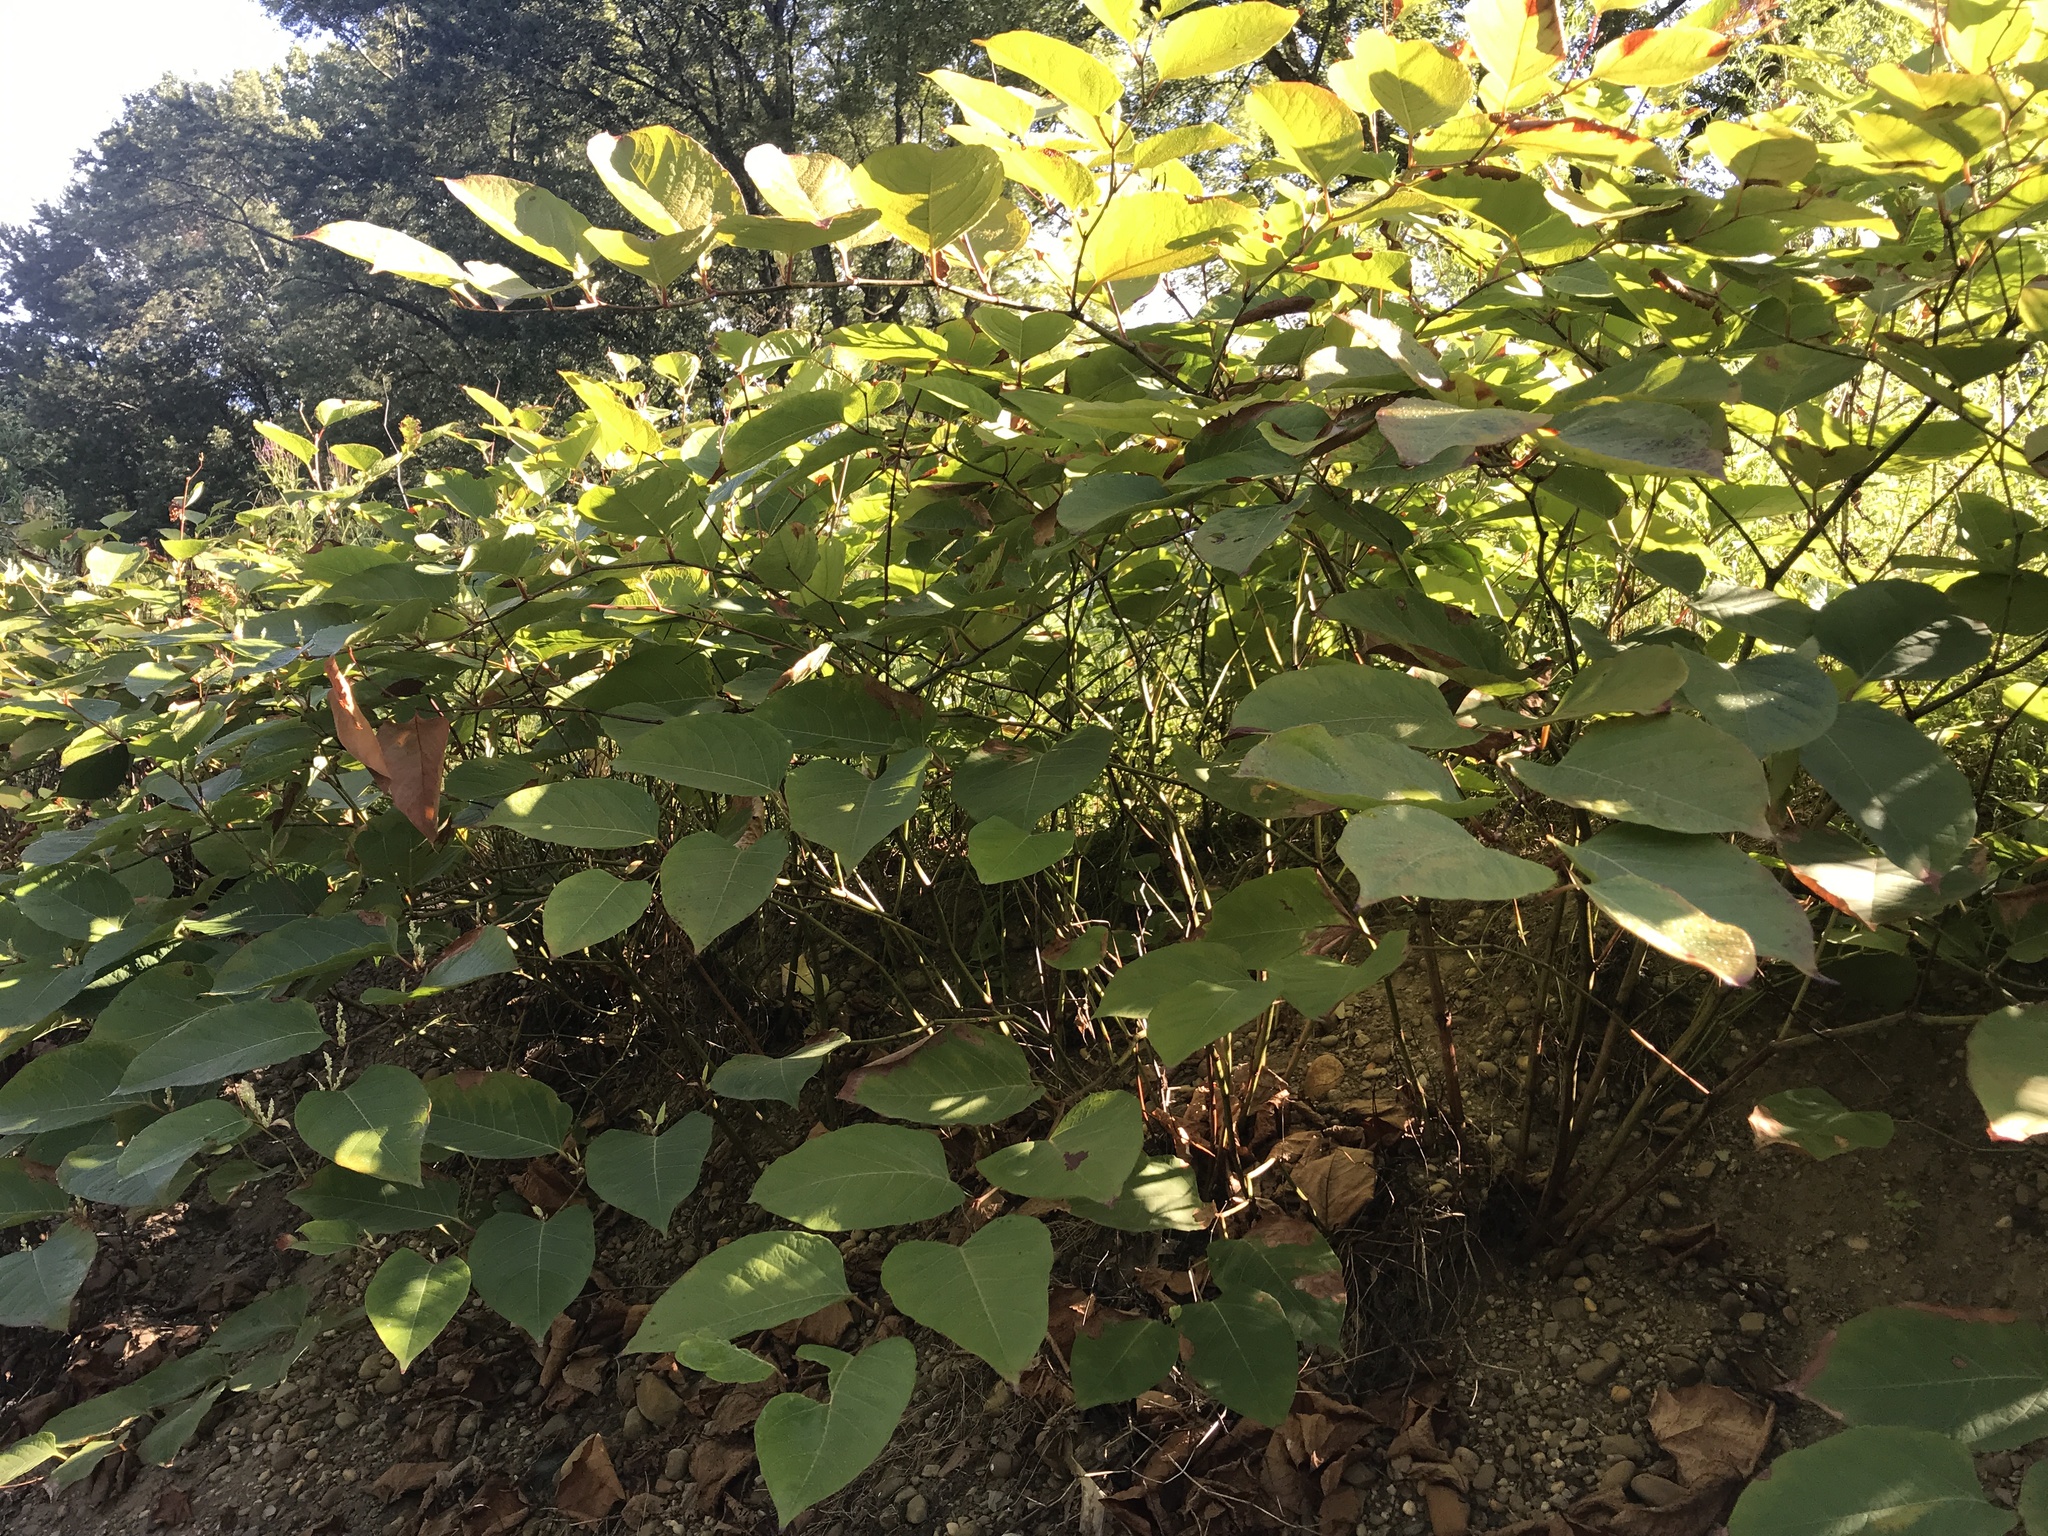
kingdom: Plantae
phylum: Tracheophyta
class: Magnoliopsida
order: Caryophyllales
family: Polygonaceae
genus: Reynoutria
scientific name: Reynoutria japonica
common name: Japanese knotweed
